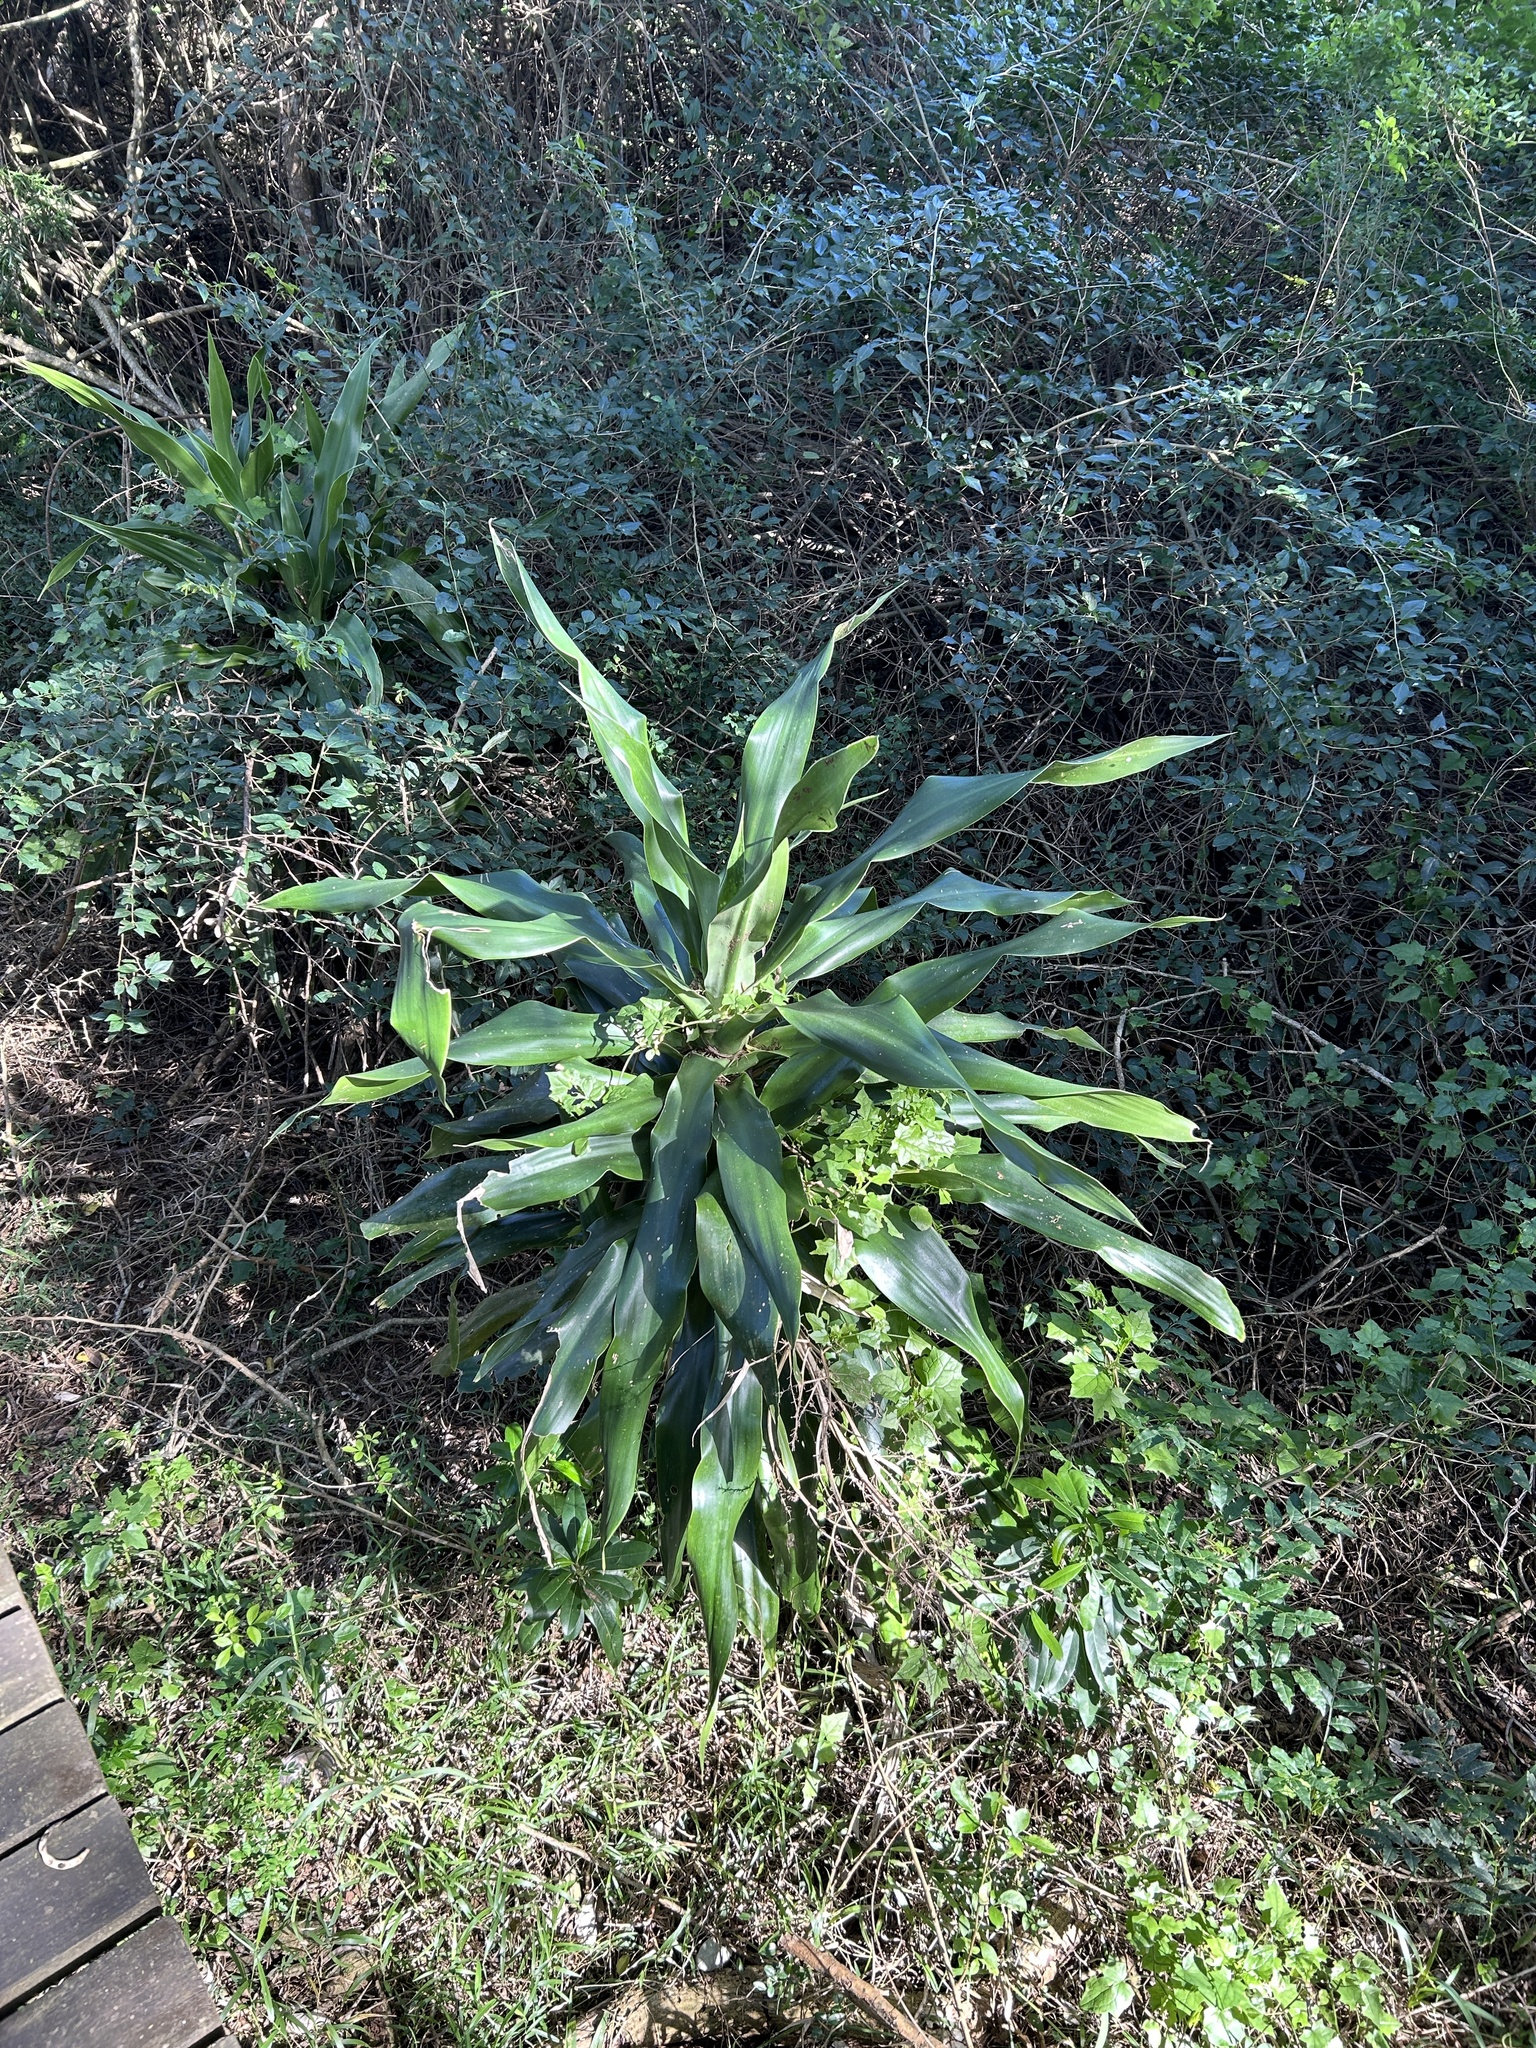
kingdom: Plantae
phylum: Tracheophyta
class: Liliopsida
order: Asparagales
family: Asparagaceae
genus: Dracaena
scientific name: Dracaena aletriformis
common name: Large-leaved dragon tree
